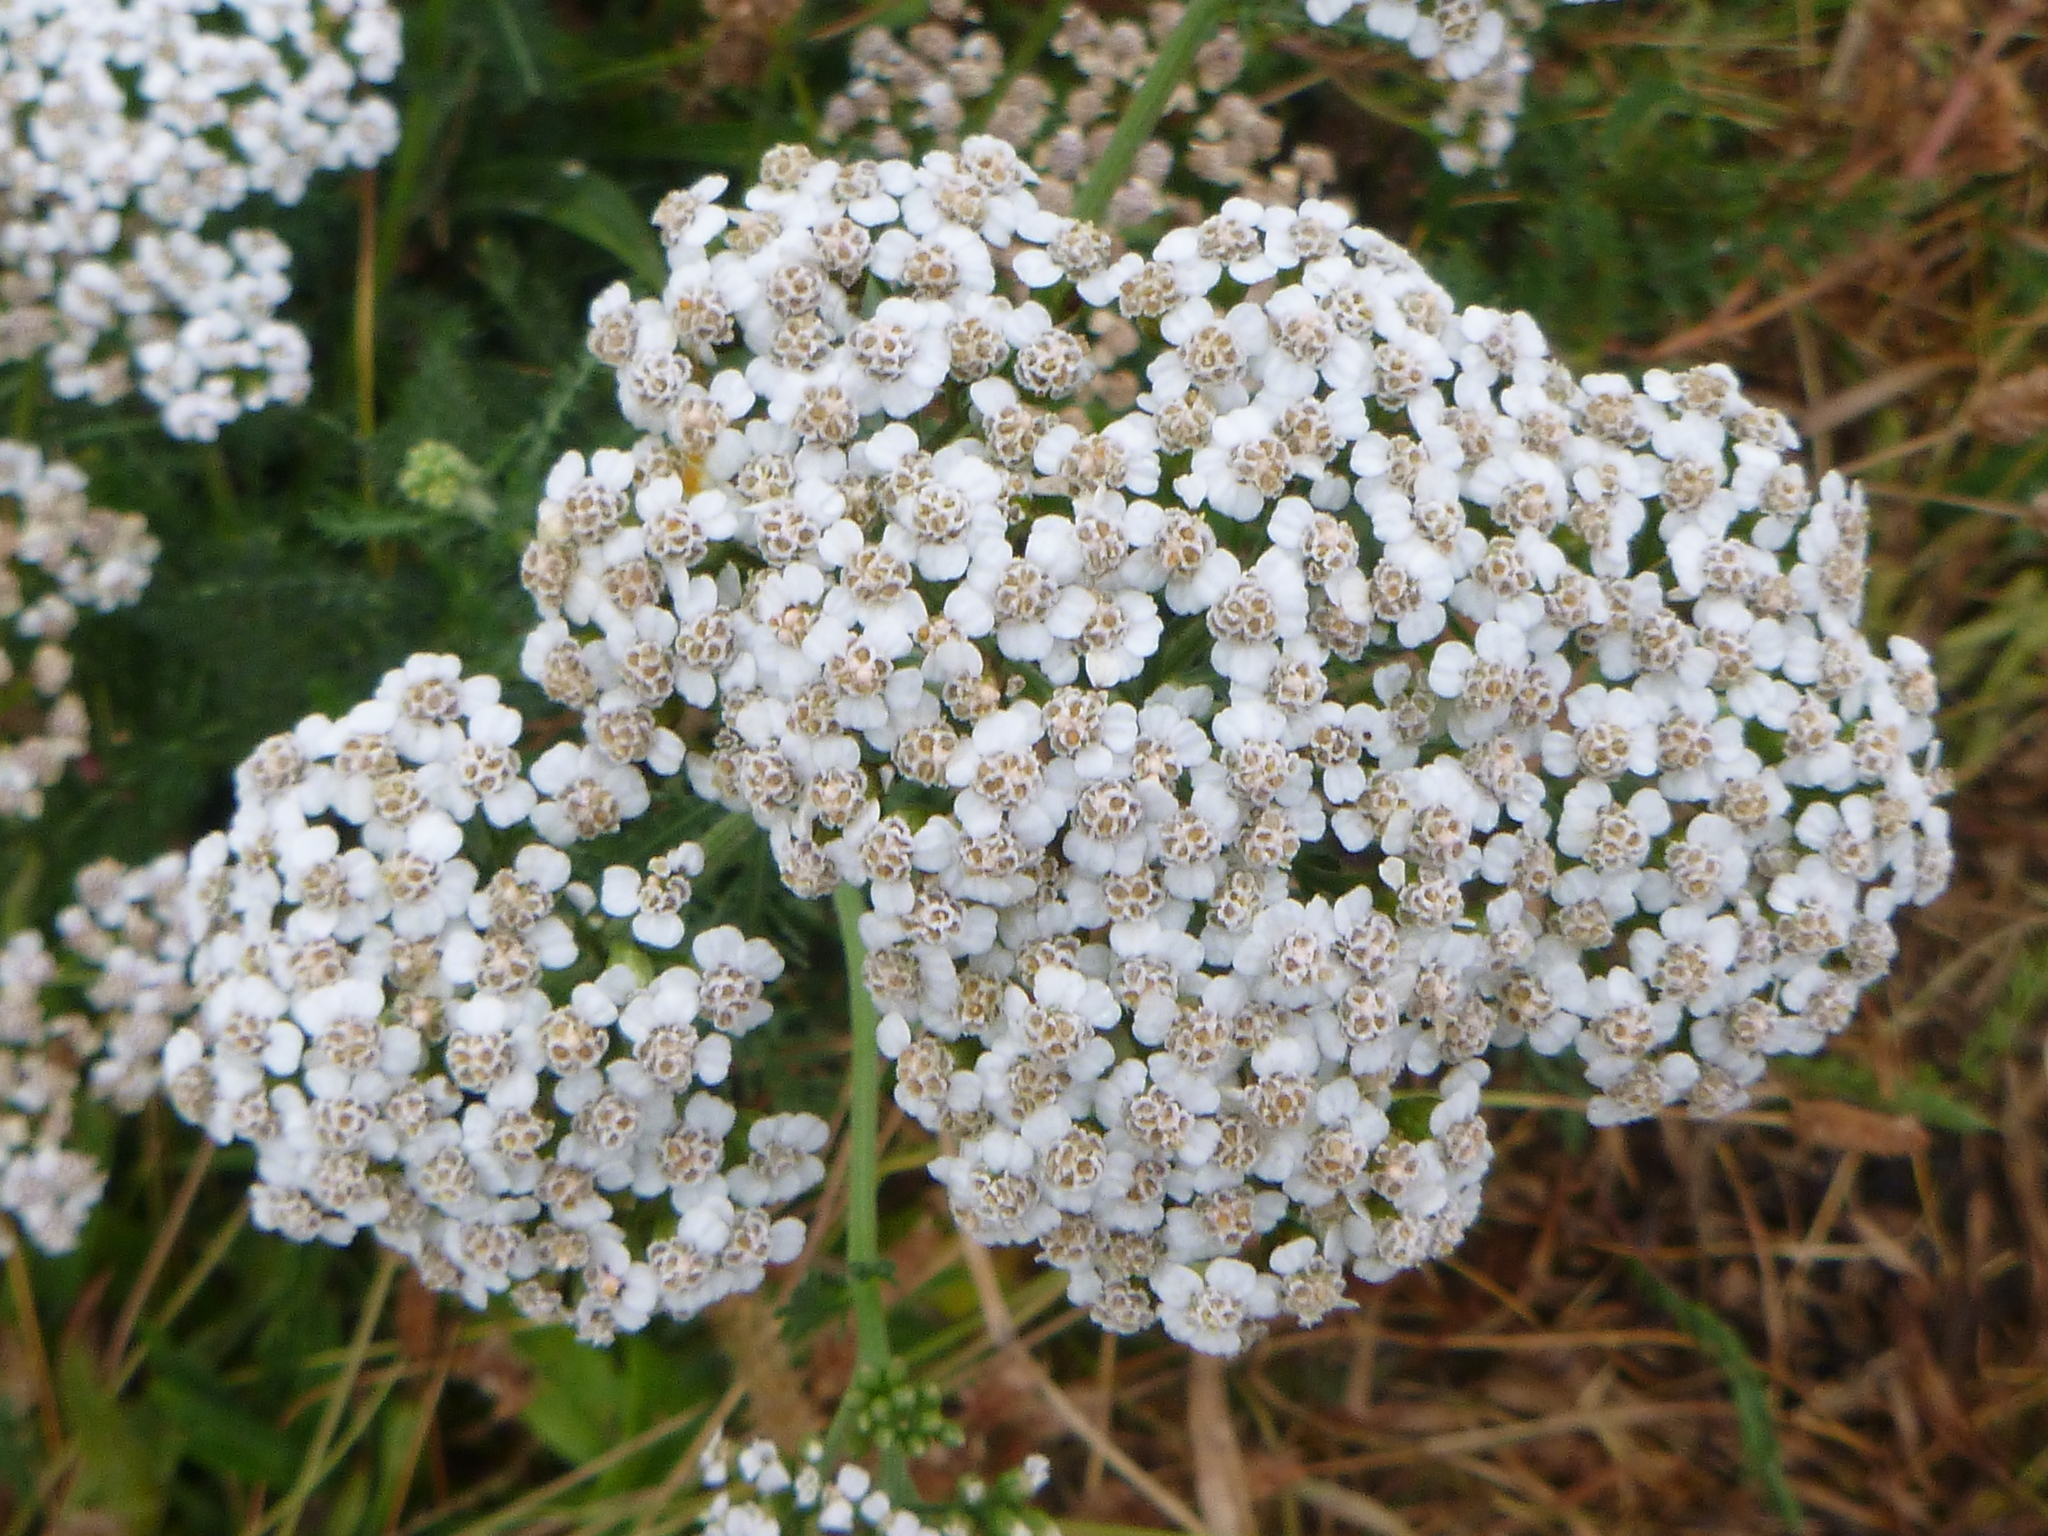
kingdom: Plantae
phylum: Tracheophyta
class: Magnoliopsida
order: Asterales
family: Asteraceae
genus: Achillea
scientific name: Achillea millefolium
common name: Yarrow
